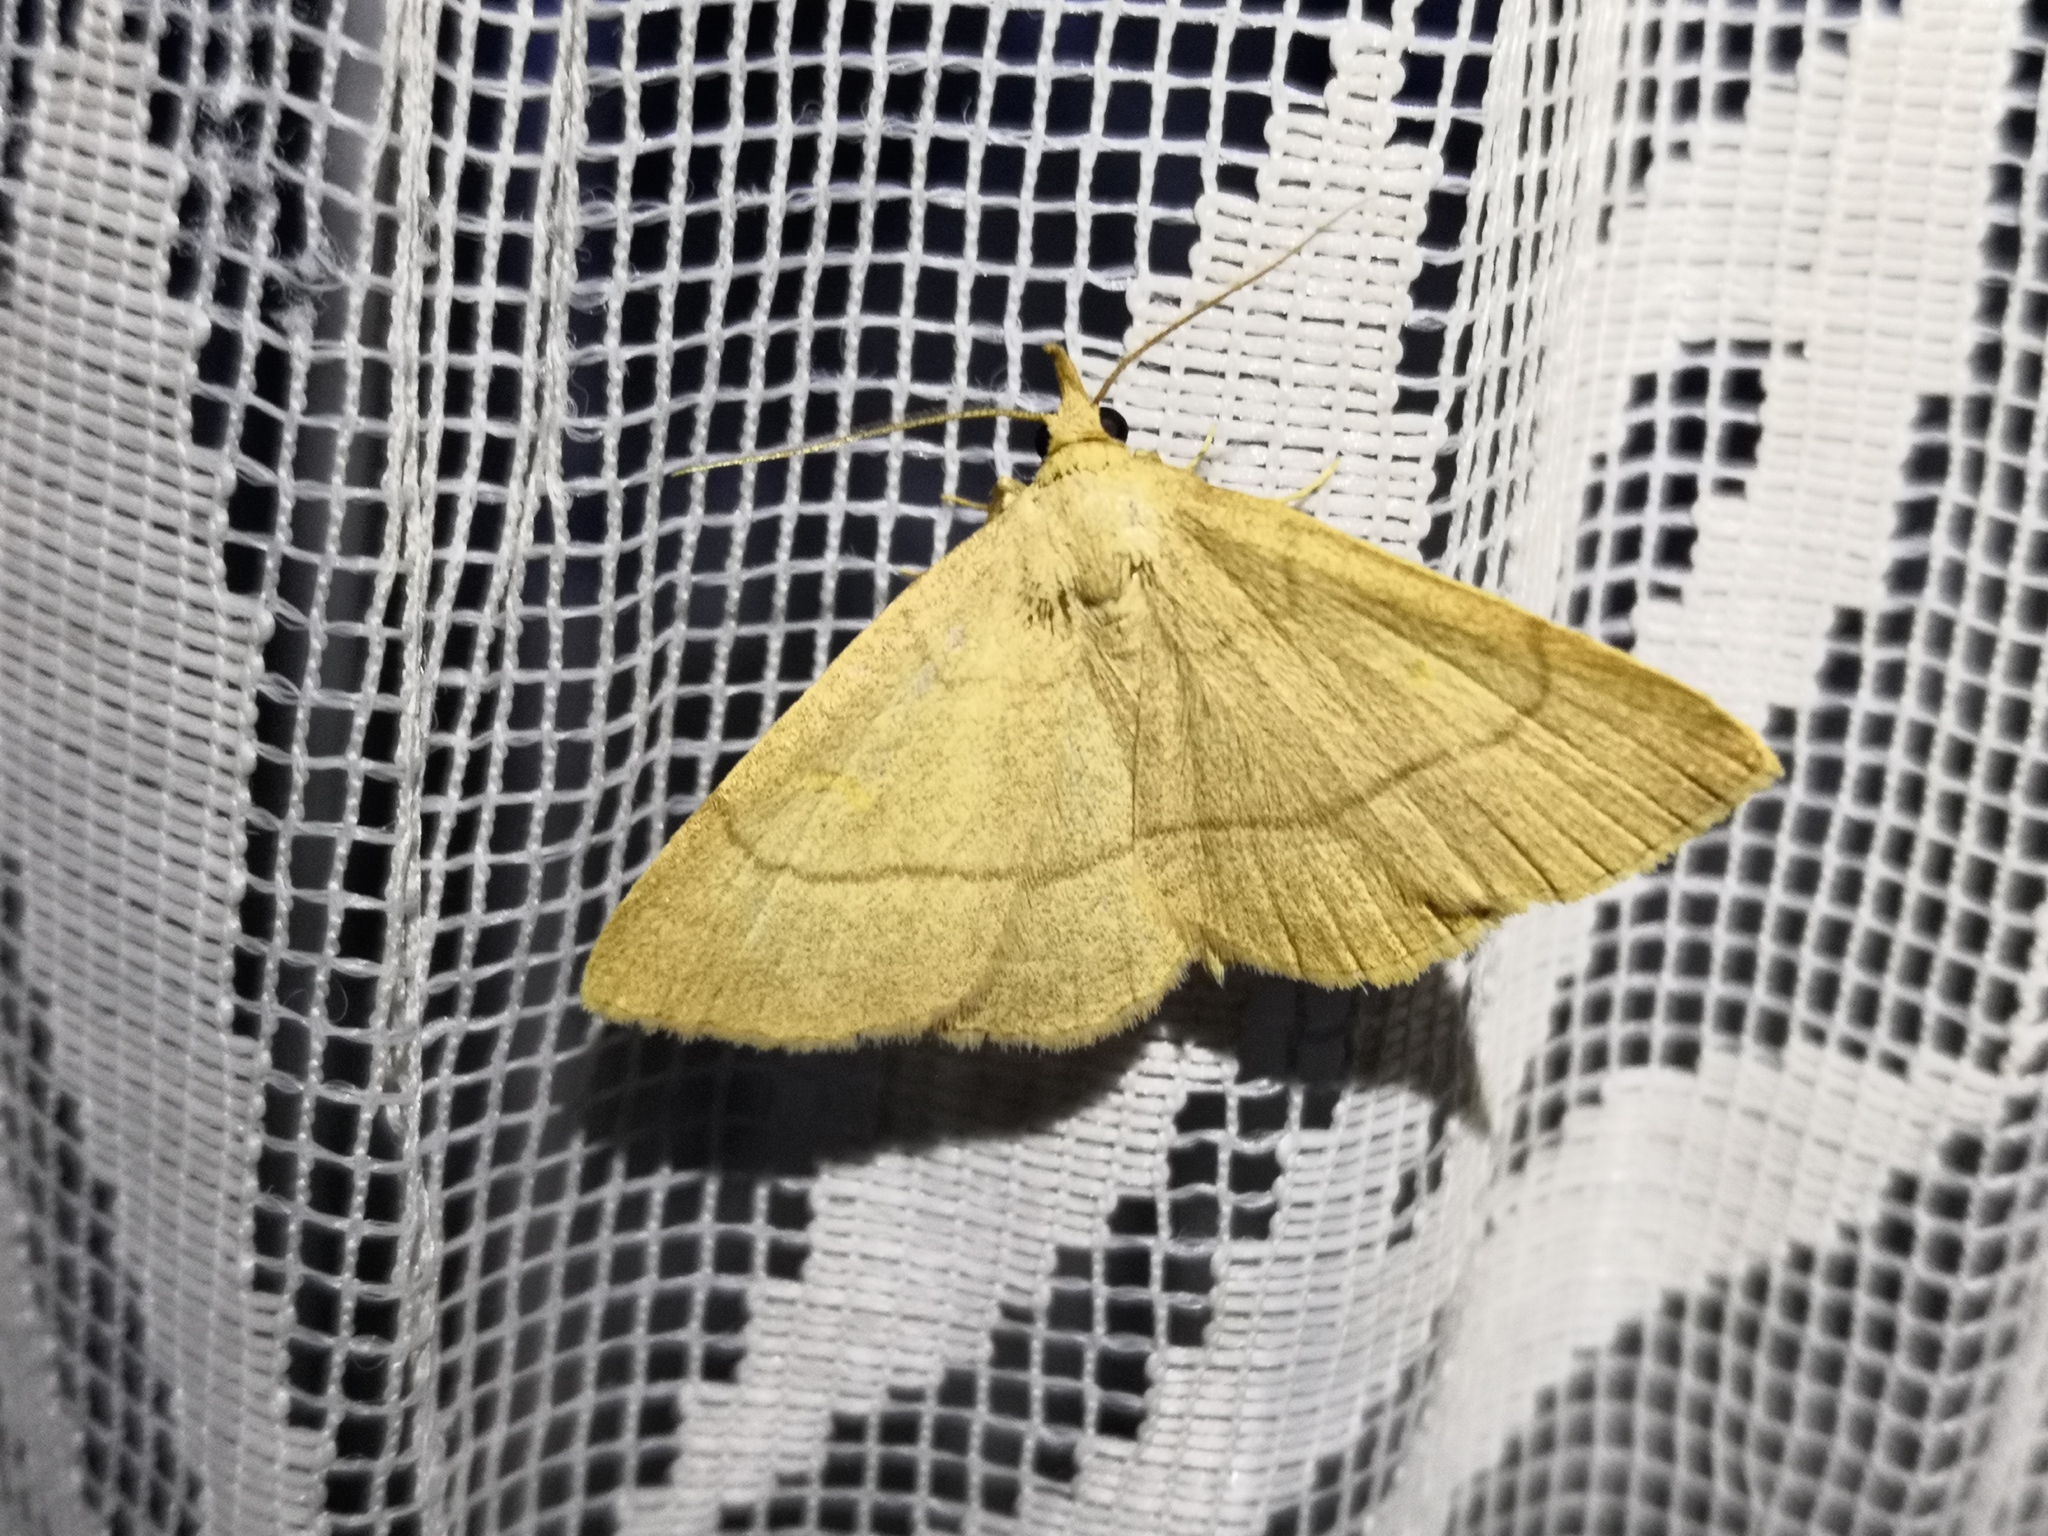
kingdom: Animalia
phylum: Arthropoda
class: Insecta
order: Lepidoptera
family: Erebidae
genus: Paracolax
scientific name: Paracolax tristalis
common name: Clay fan-foot
